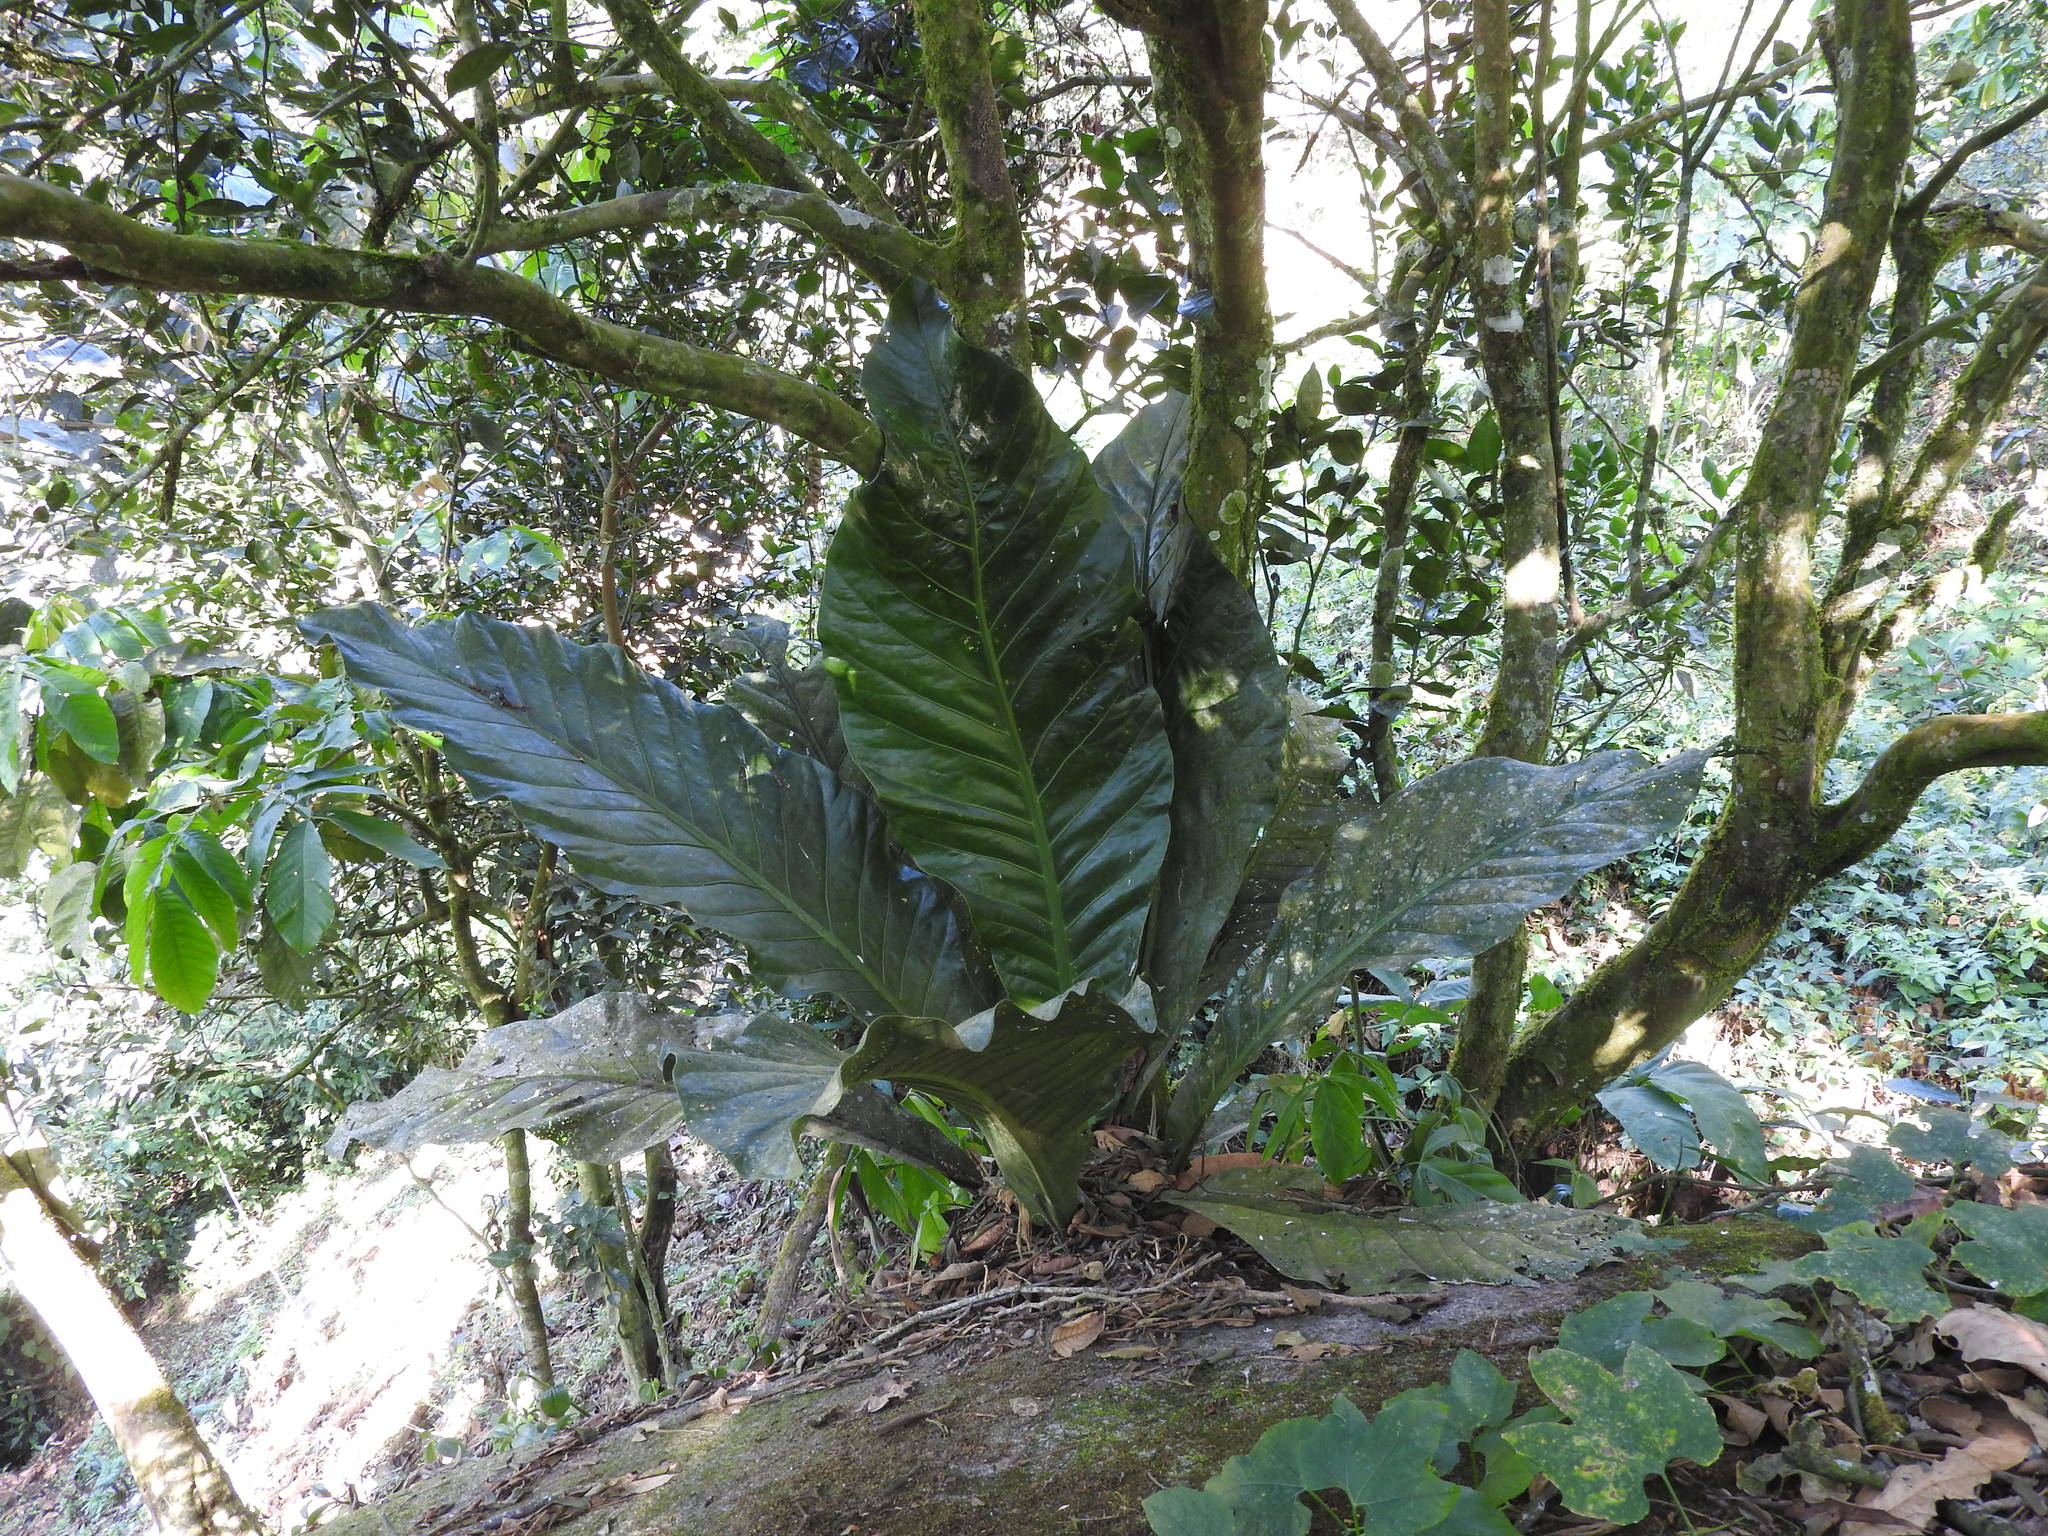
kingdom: Plantae
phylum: Tracheophyta
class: Liliopsida
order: Alismatales
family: Araceae
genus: Anthurium
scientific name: Anthurium salvinii
